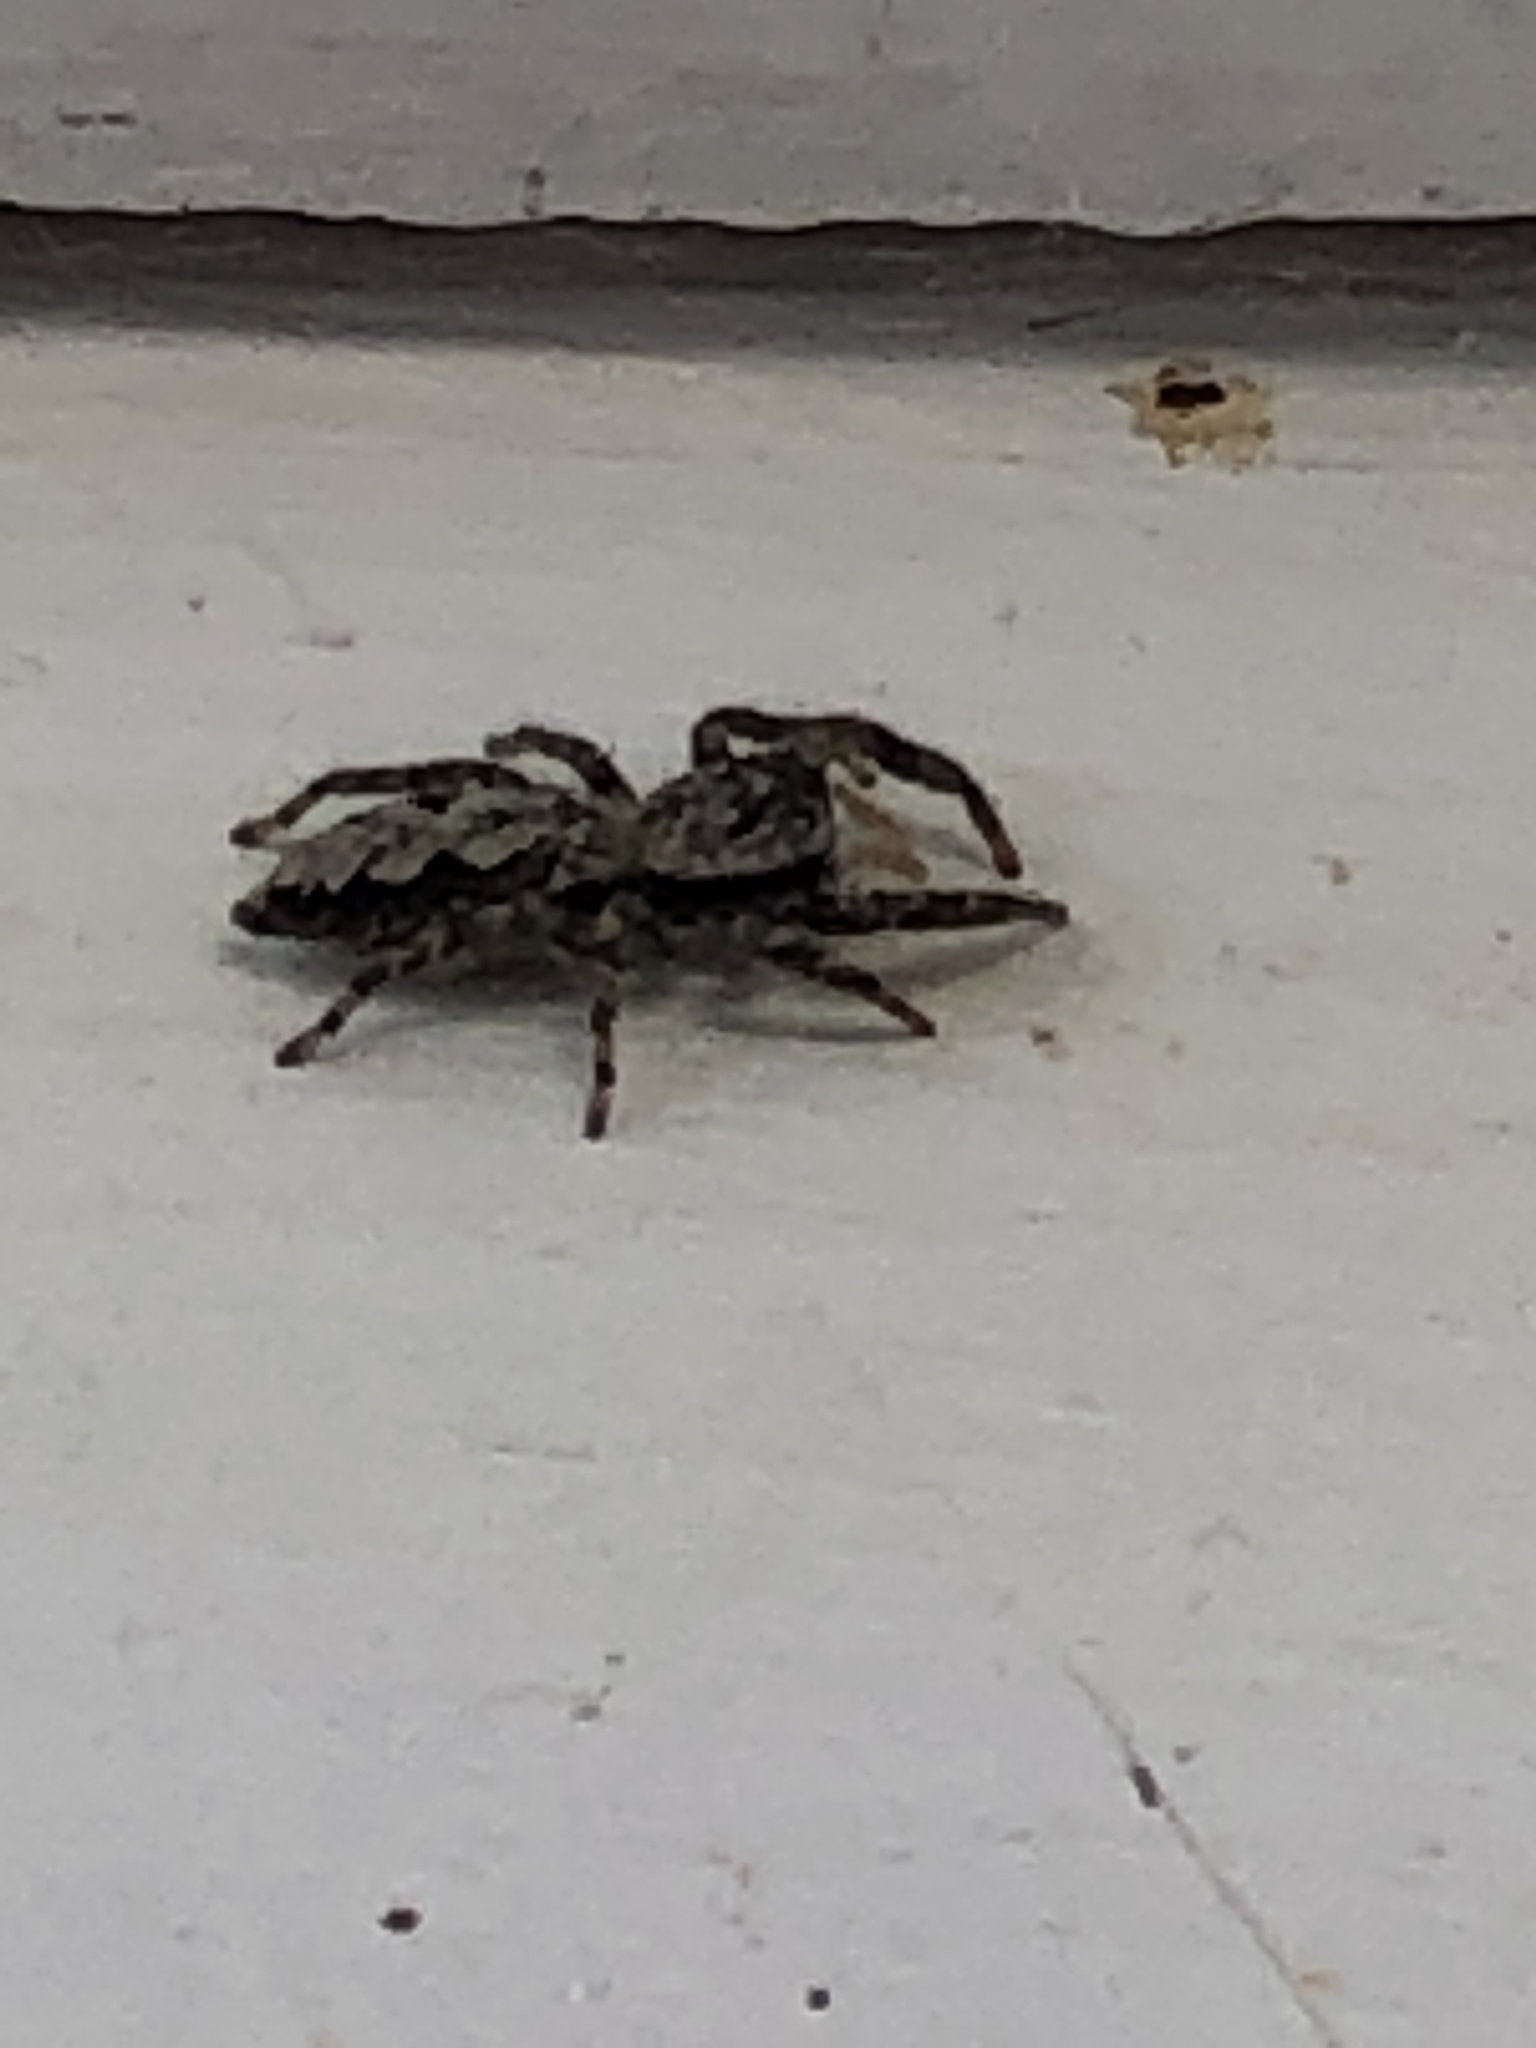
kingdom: Animalia
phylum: Arthropoda
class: Arachnida
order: Araneae
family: Salticidae
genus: Platycryptus
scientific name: Platycryptus undatus
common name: Tan jumping spider
